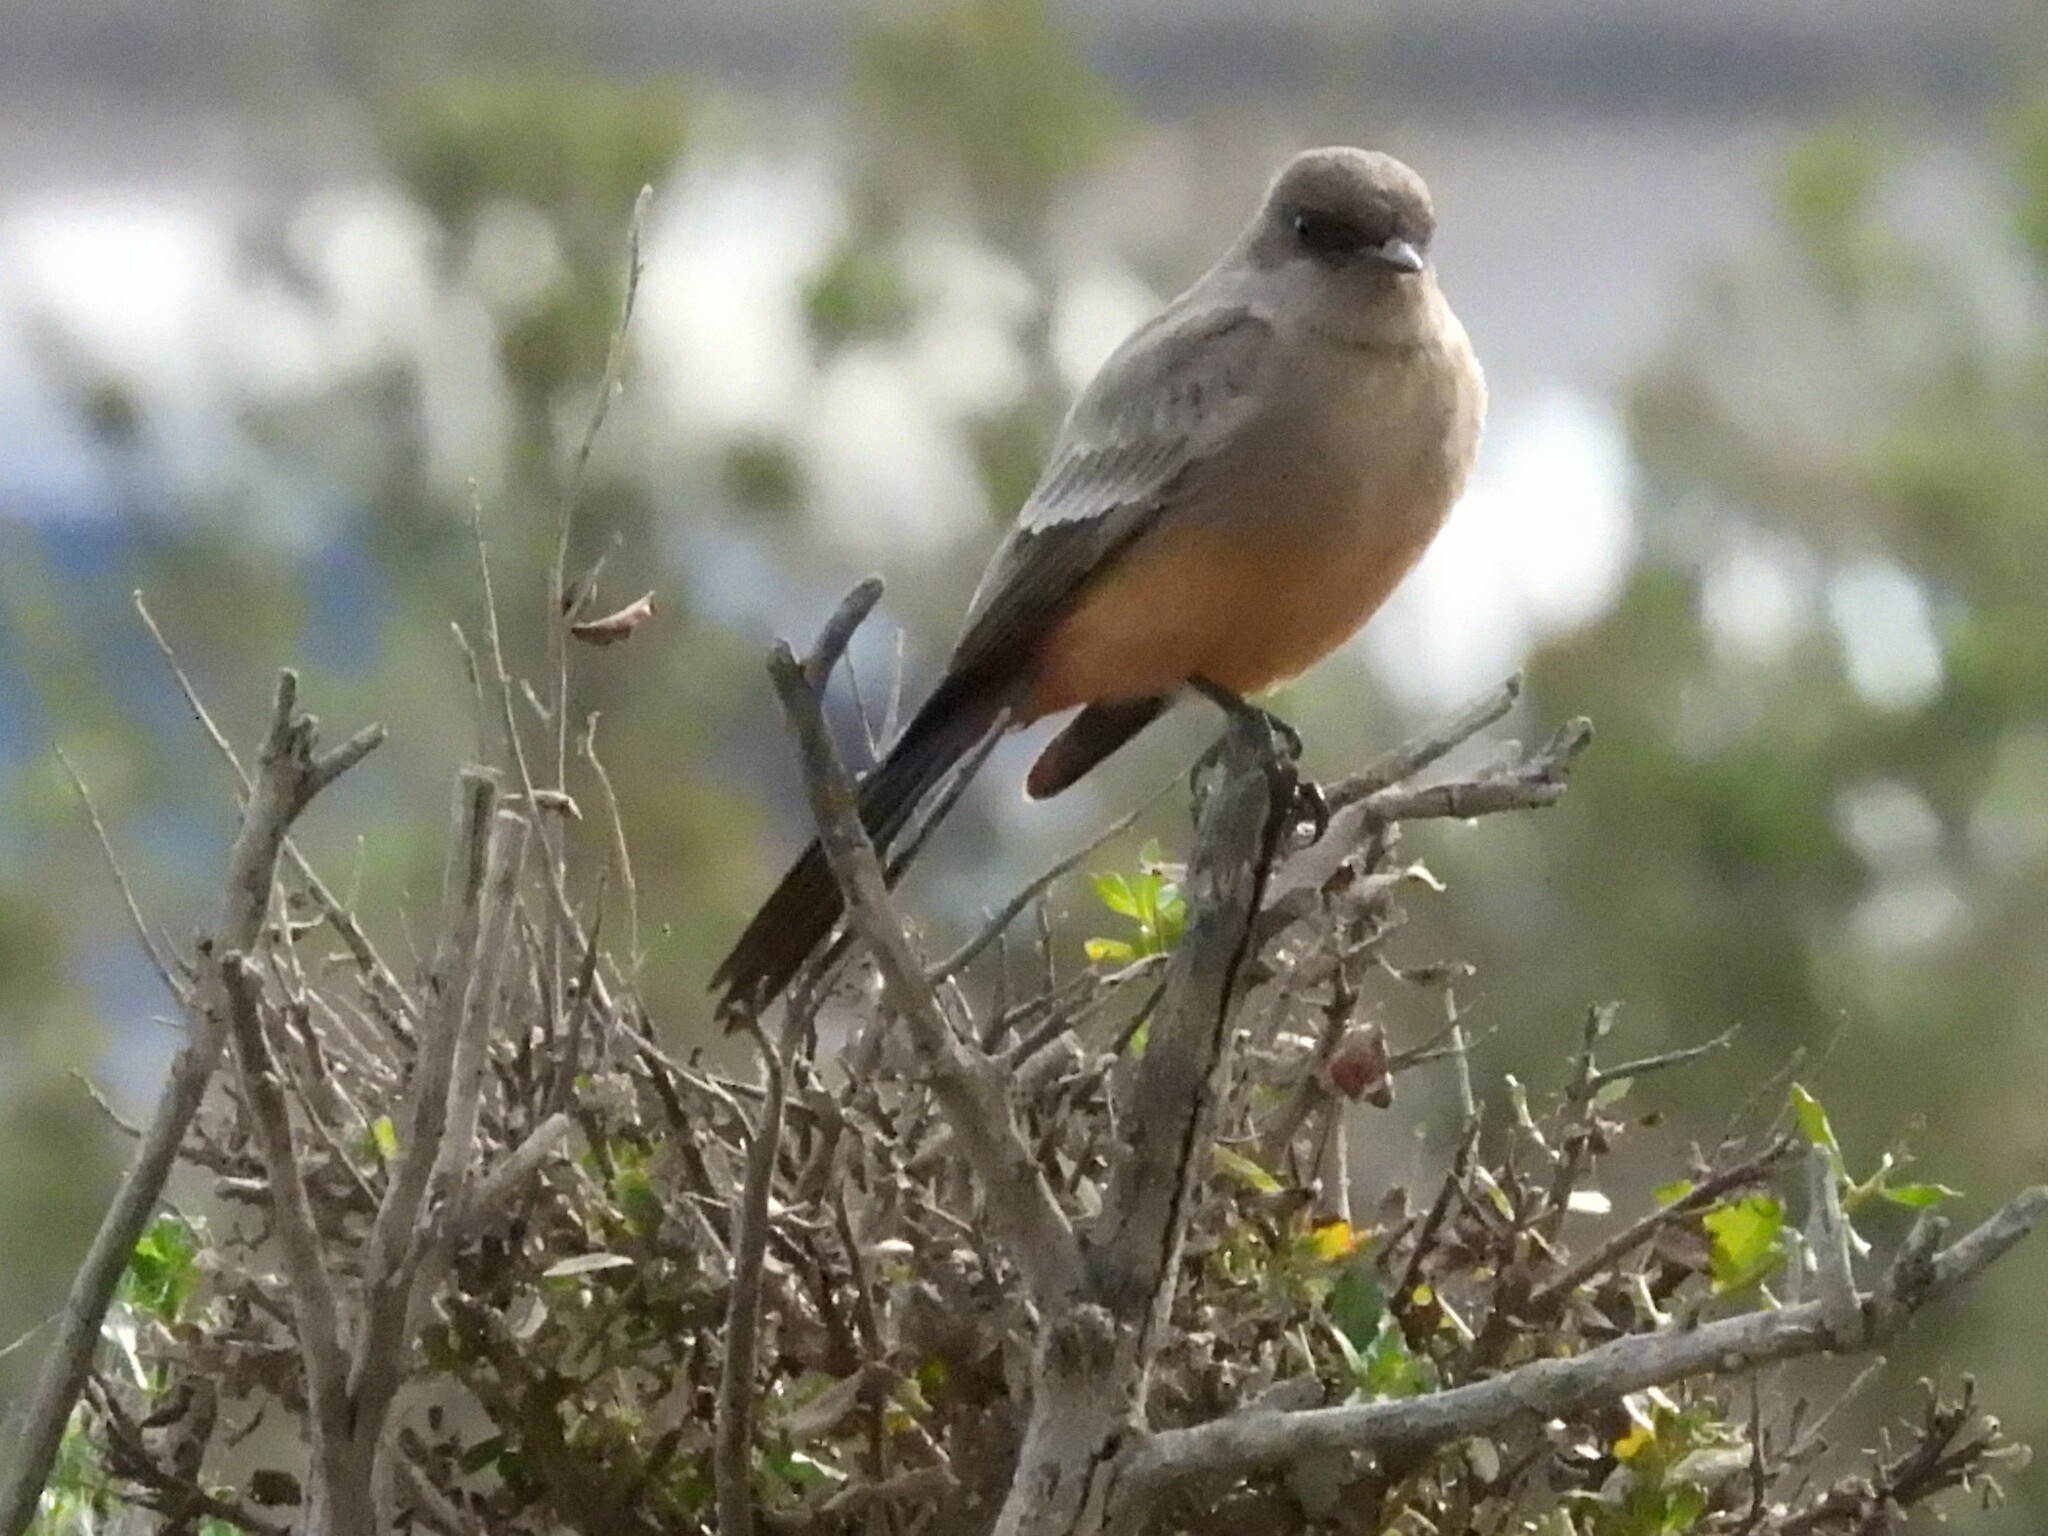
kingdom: Animalia
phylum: Chordata
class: Aves
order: Passeriformes
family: Tyrannidae
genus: Sayornis
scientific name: Sayornis saya
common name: Say's phoebe
